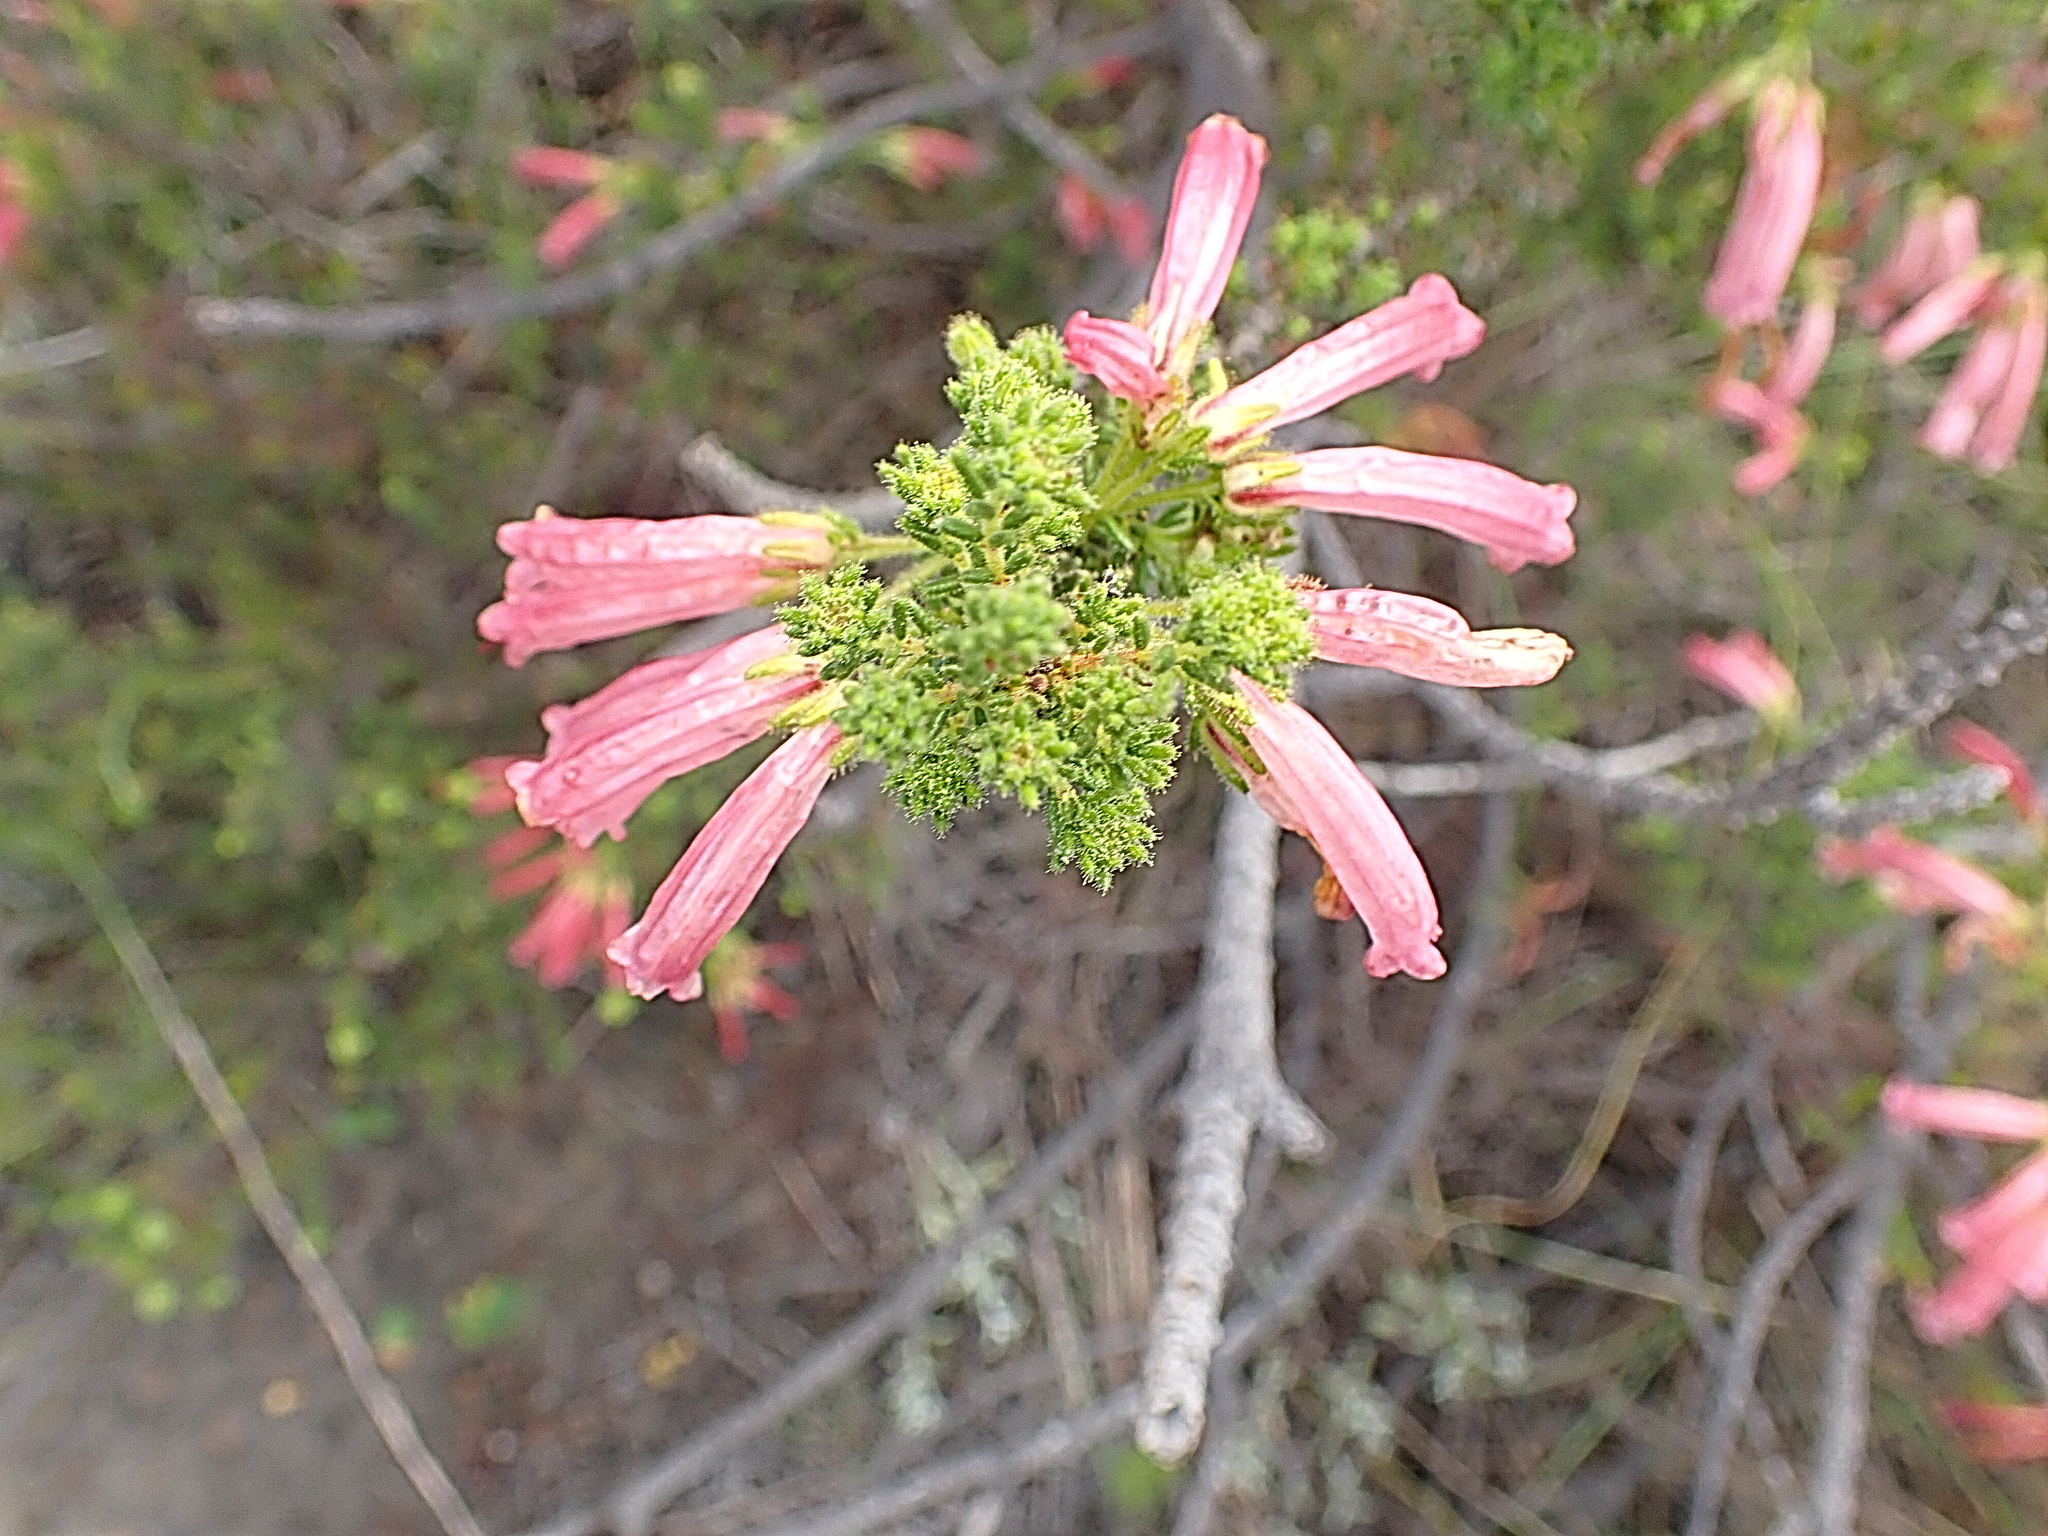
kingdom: Plantae
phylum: Tracheophyta
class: Magnoliopsida
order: Ericales
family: Ericaceae
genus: Erica
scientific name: Erica glandulosa
